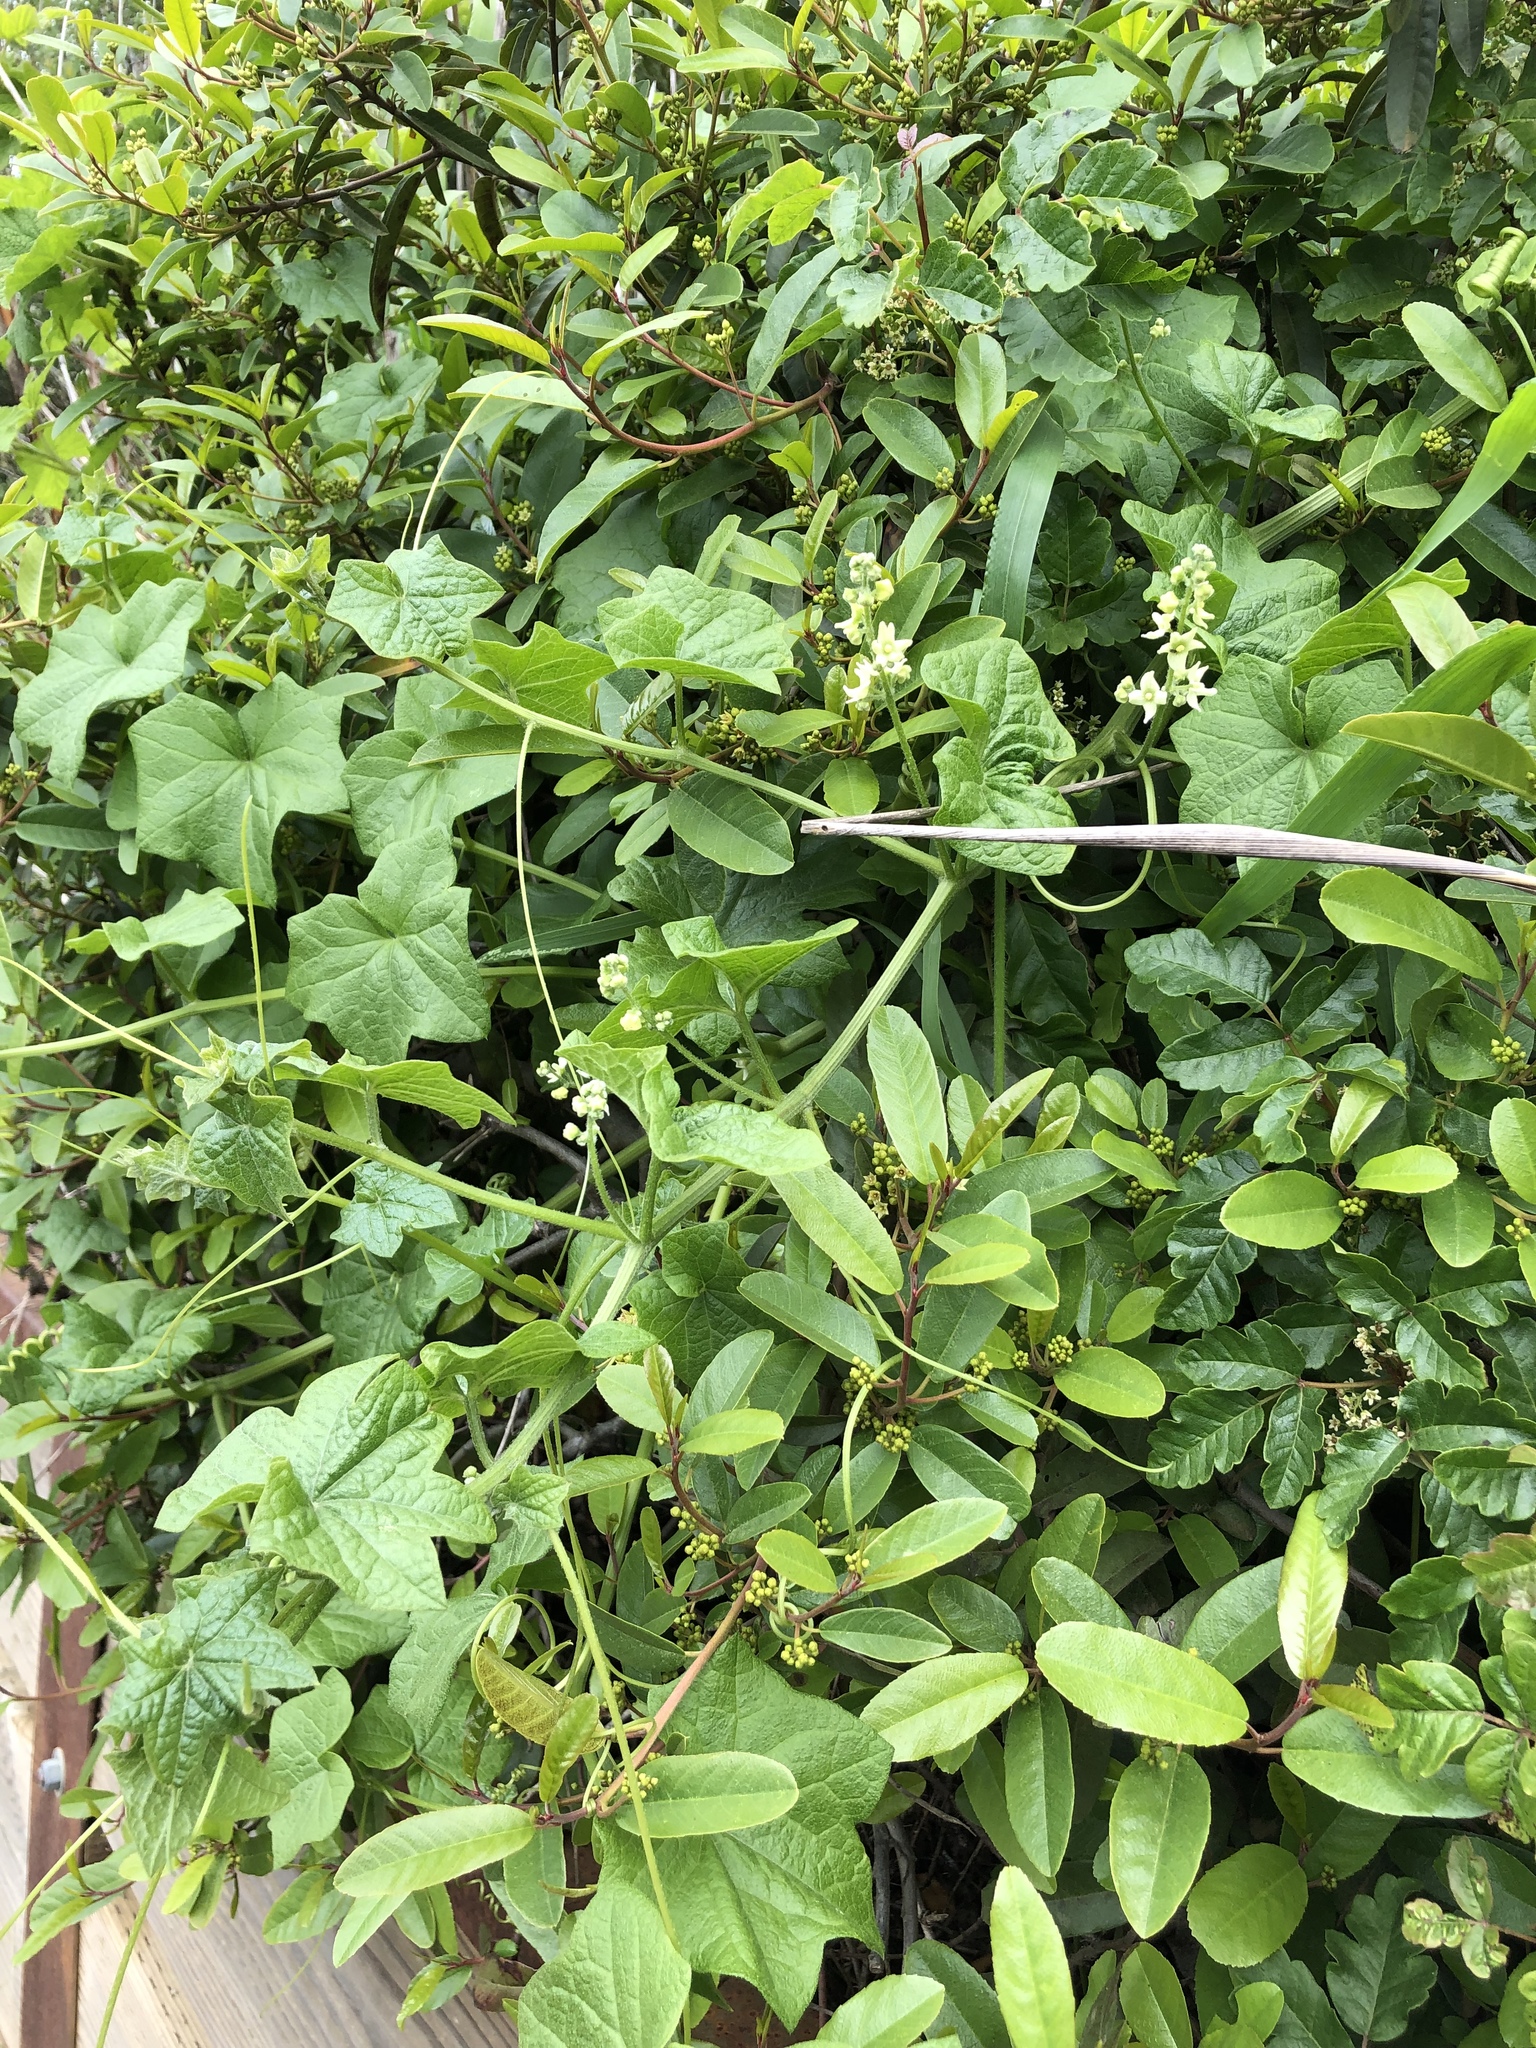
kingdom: Plantae
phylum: Tracheophyta
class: Magnoliopsida
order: Cucurbitales
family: Cucurbitaceae
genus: Marah
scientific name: Marah fabacea
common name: California manroot
